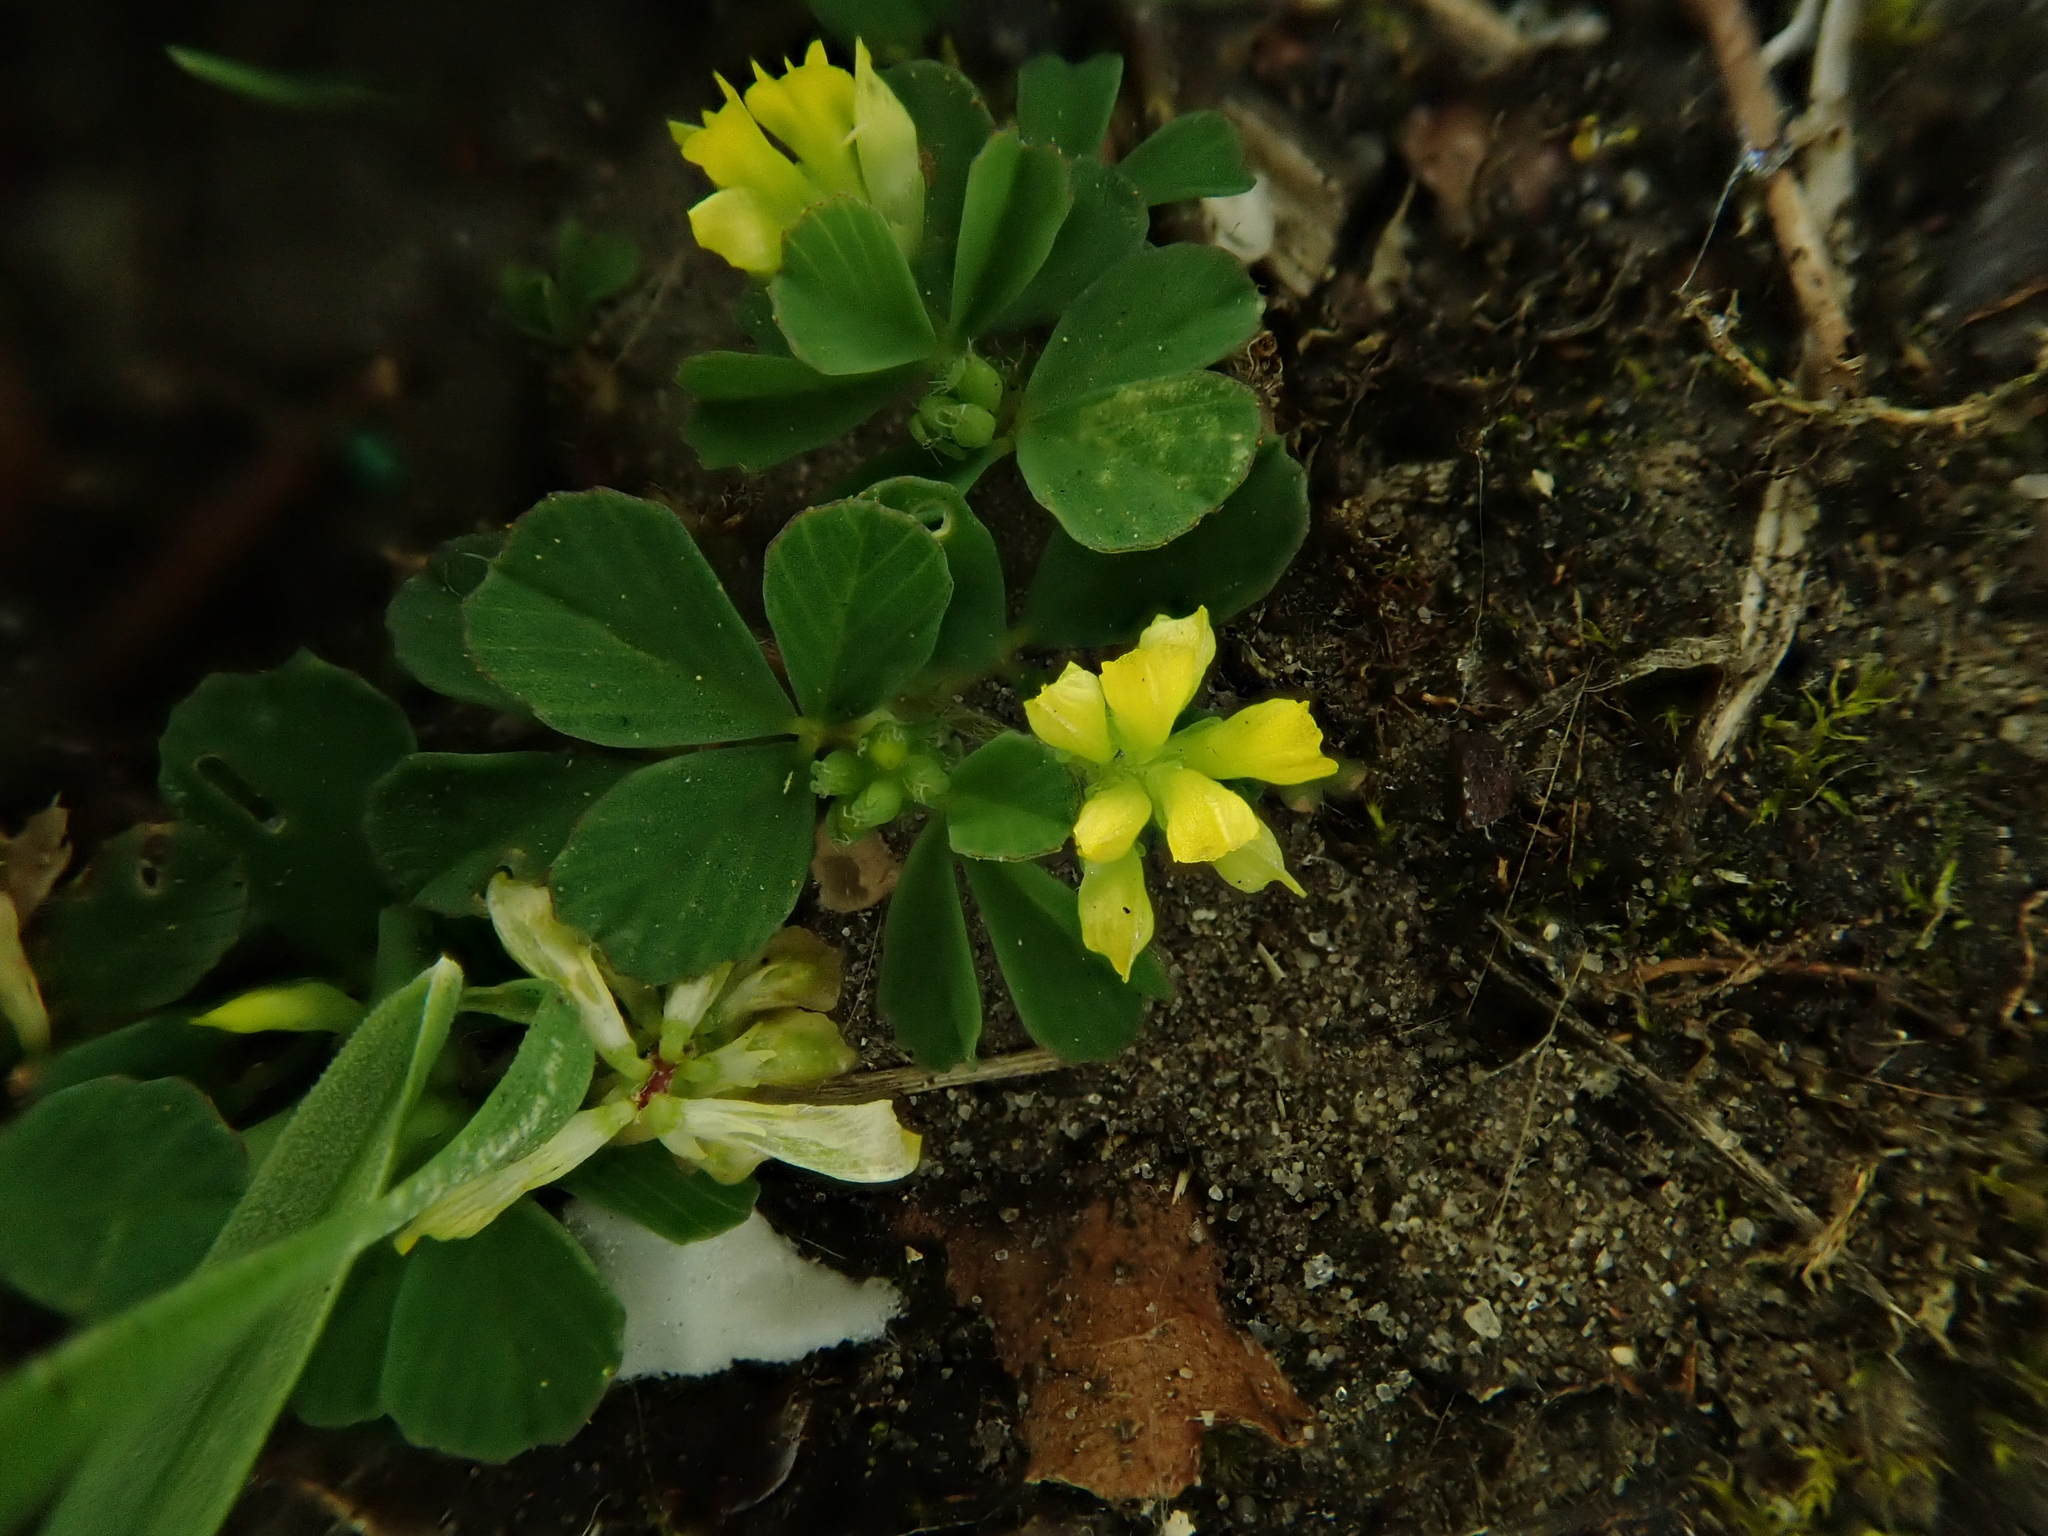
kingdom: Plantae
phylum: Tracheophyta
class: Magnoliopsida
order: Fabales
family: Fabaceae
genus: Trifolium
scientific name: Trifolium micranthum
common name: Slender trefoil
